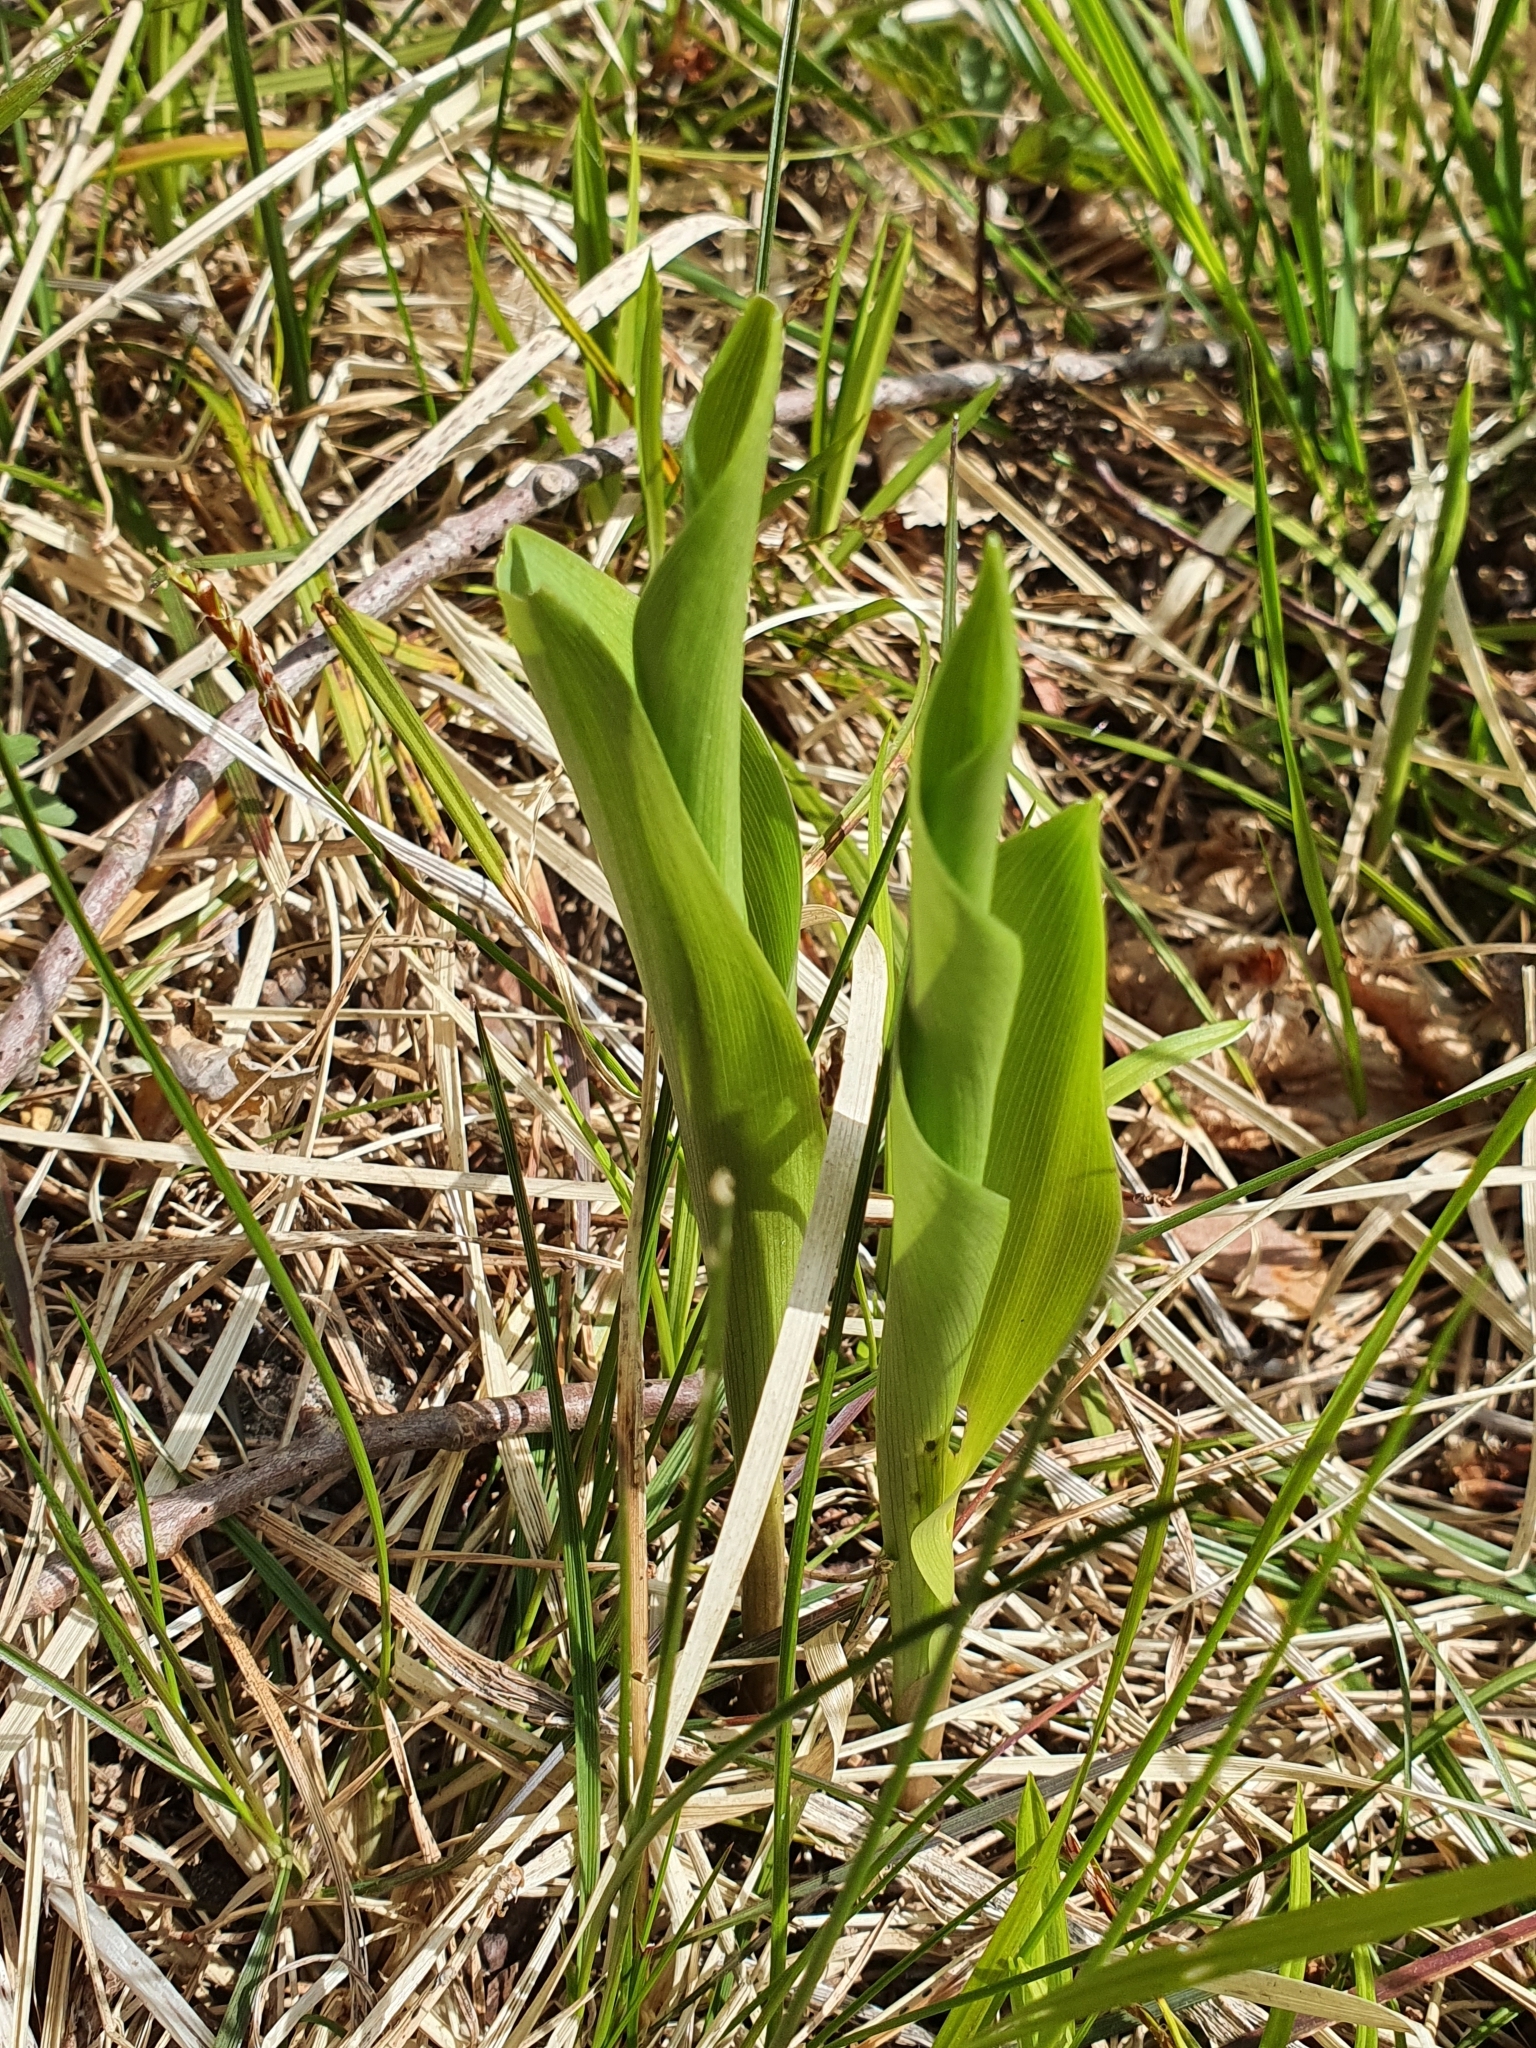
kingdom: Plantae
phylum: Tracheophyta
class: Liliopsida
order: Asparagales
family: Asparagaceae
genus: Convallaria
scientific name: Convallaria majalis
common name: Lily-of-the-valley
